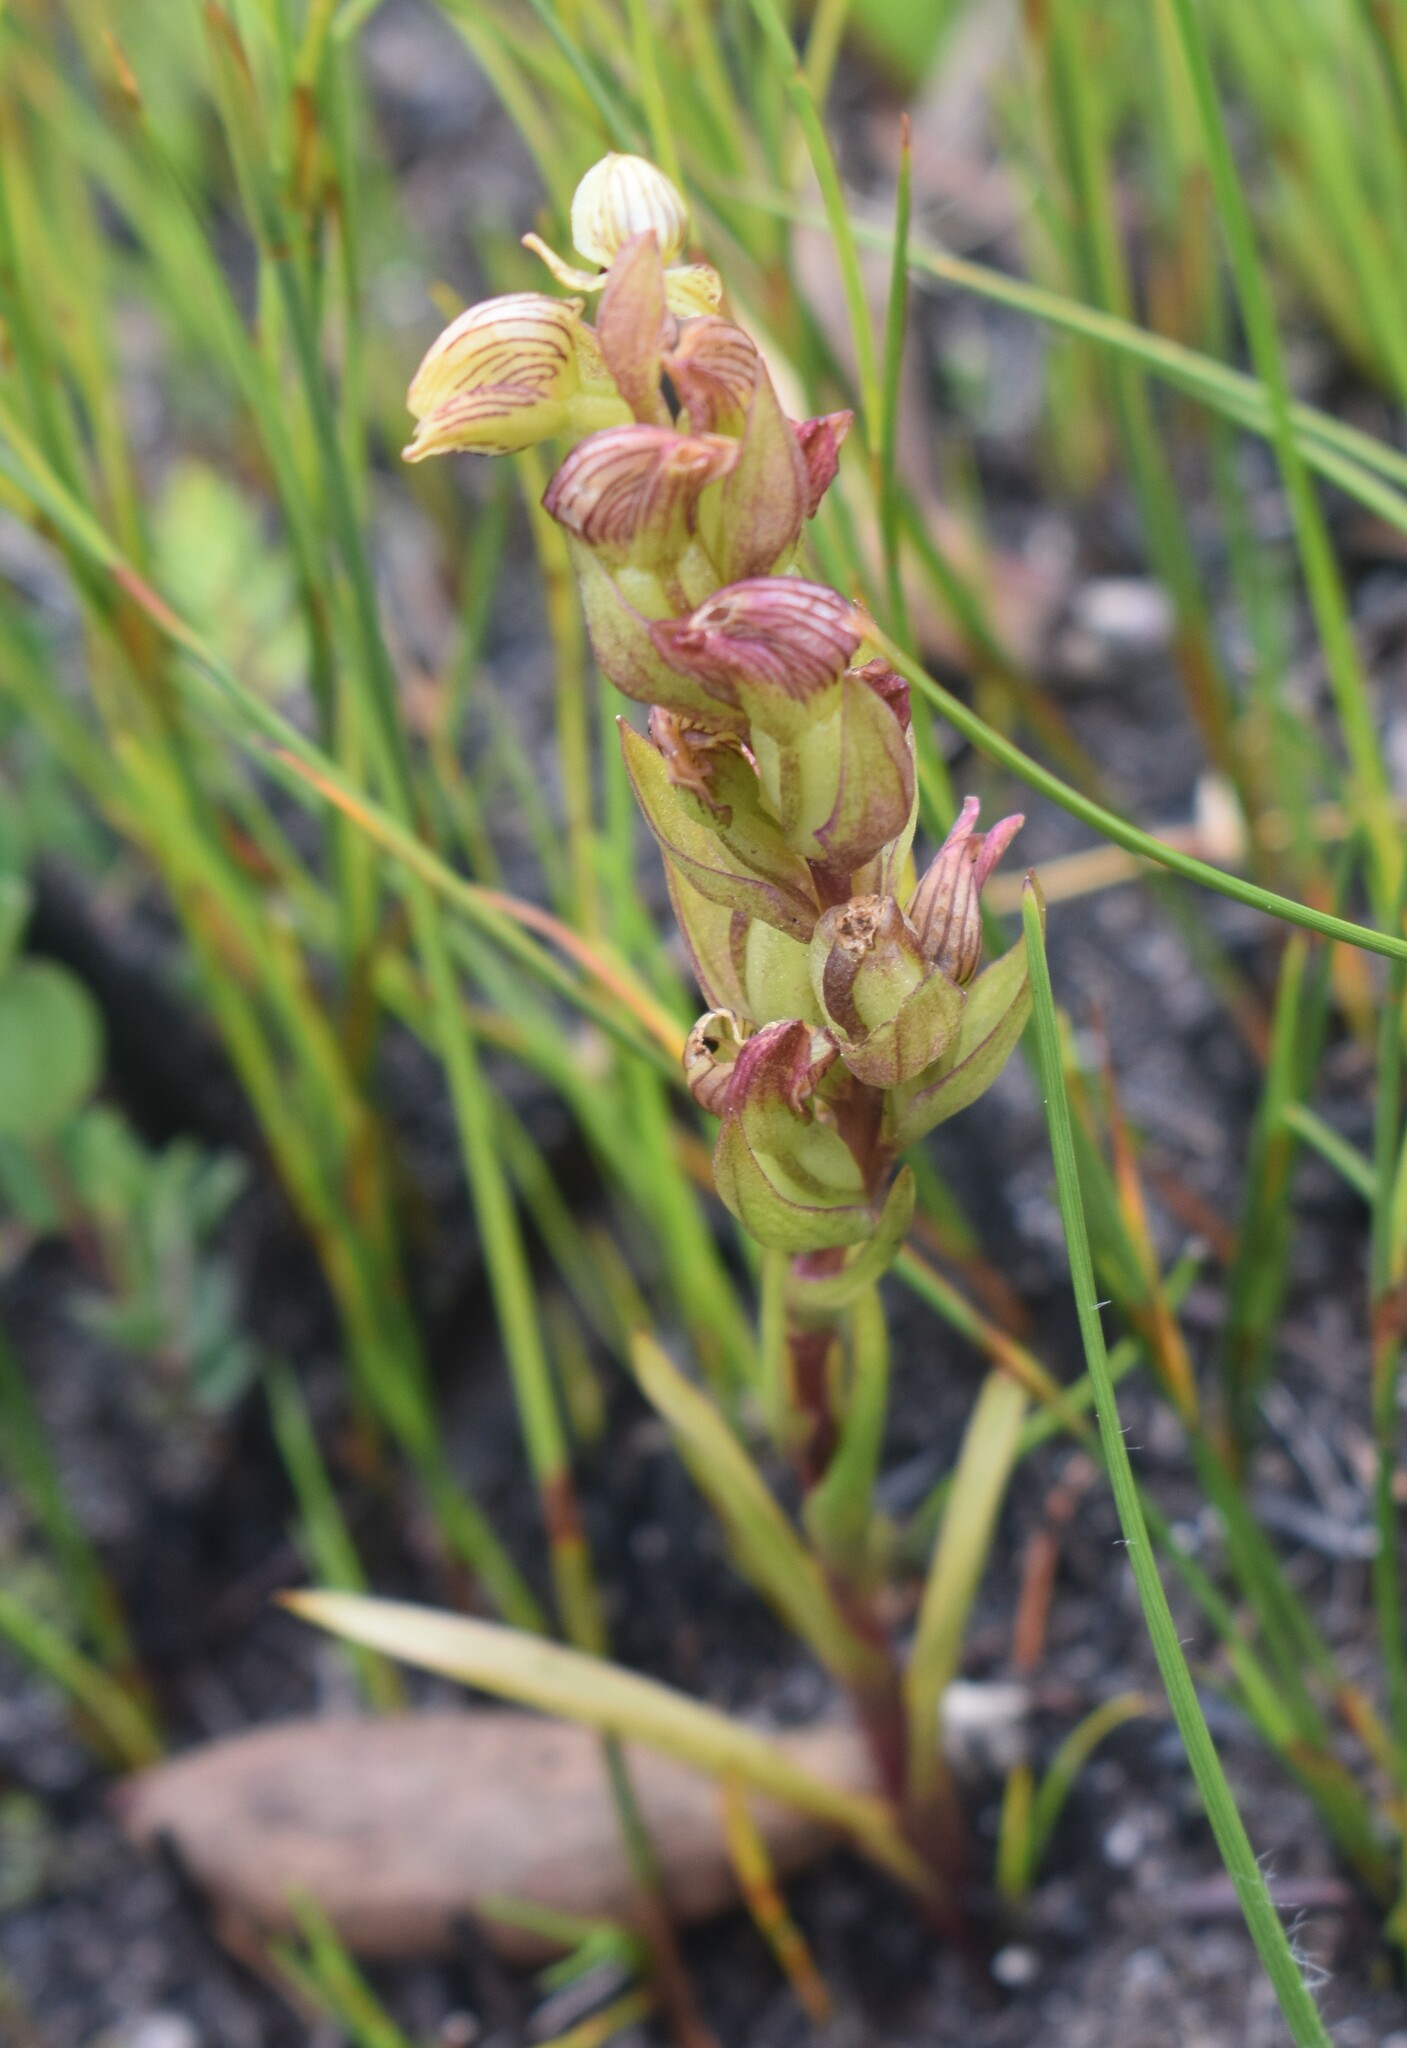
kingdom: Plantae
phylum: Tracheophyta
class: Liliopsida
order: Asparagales
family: Orchidaceae
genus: Disa
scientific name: Disa lineata
